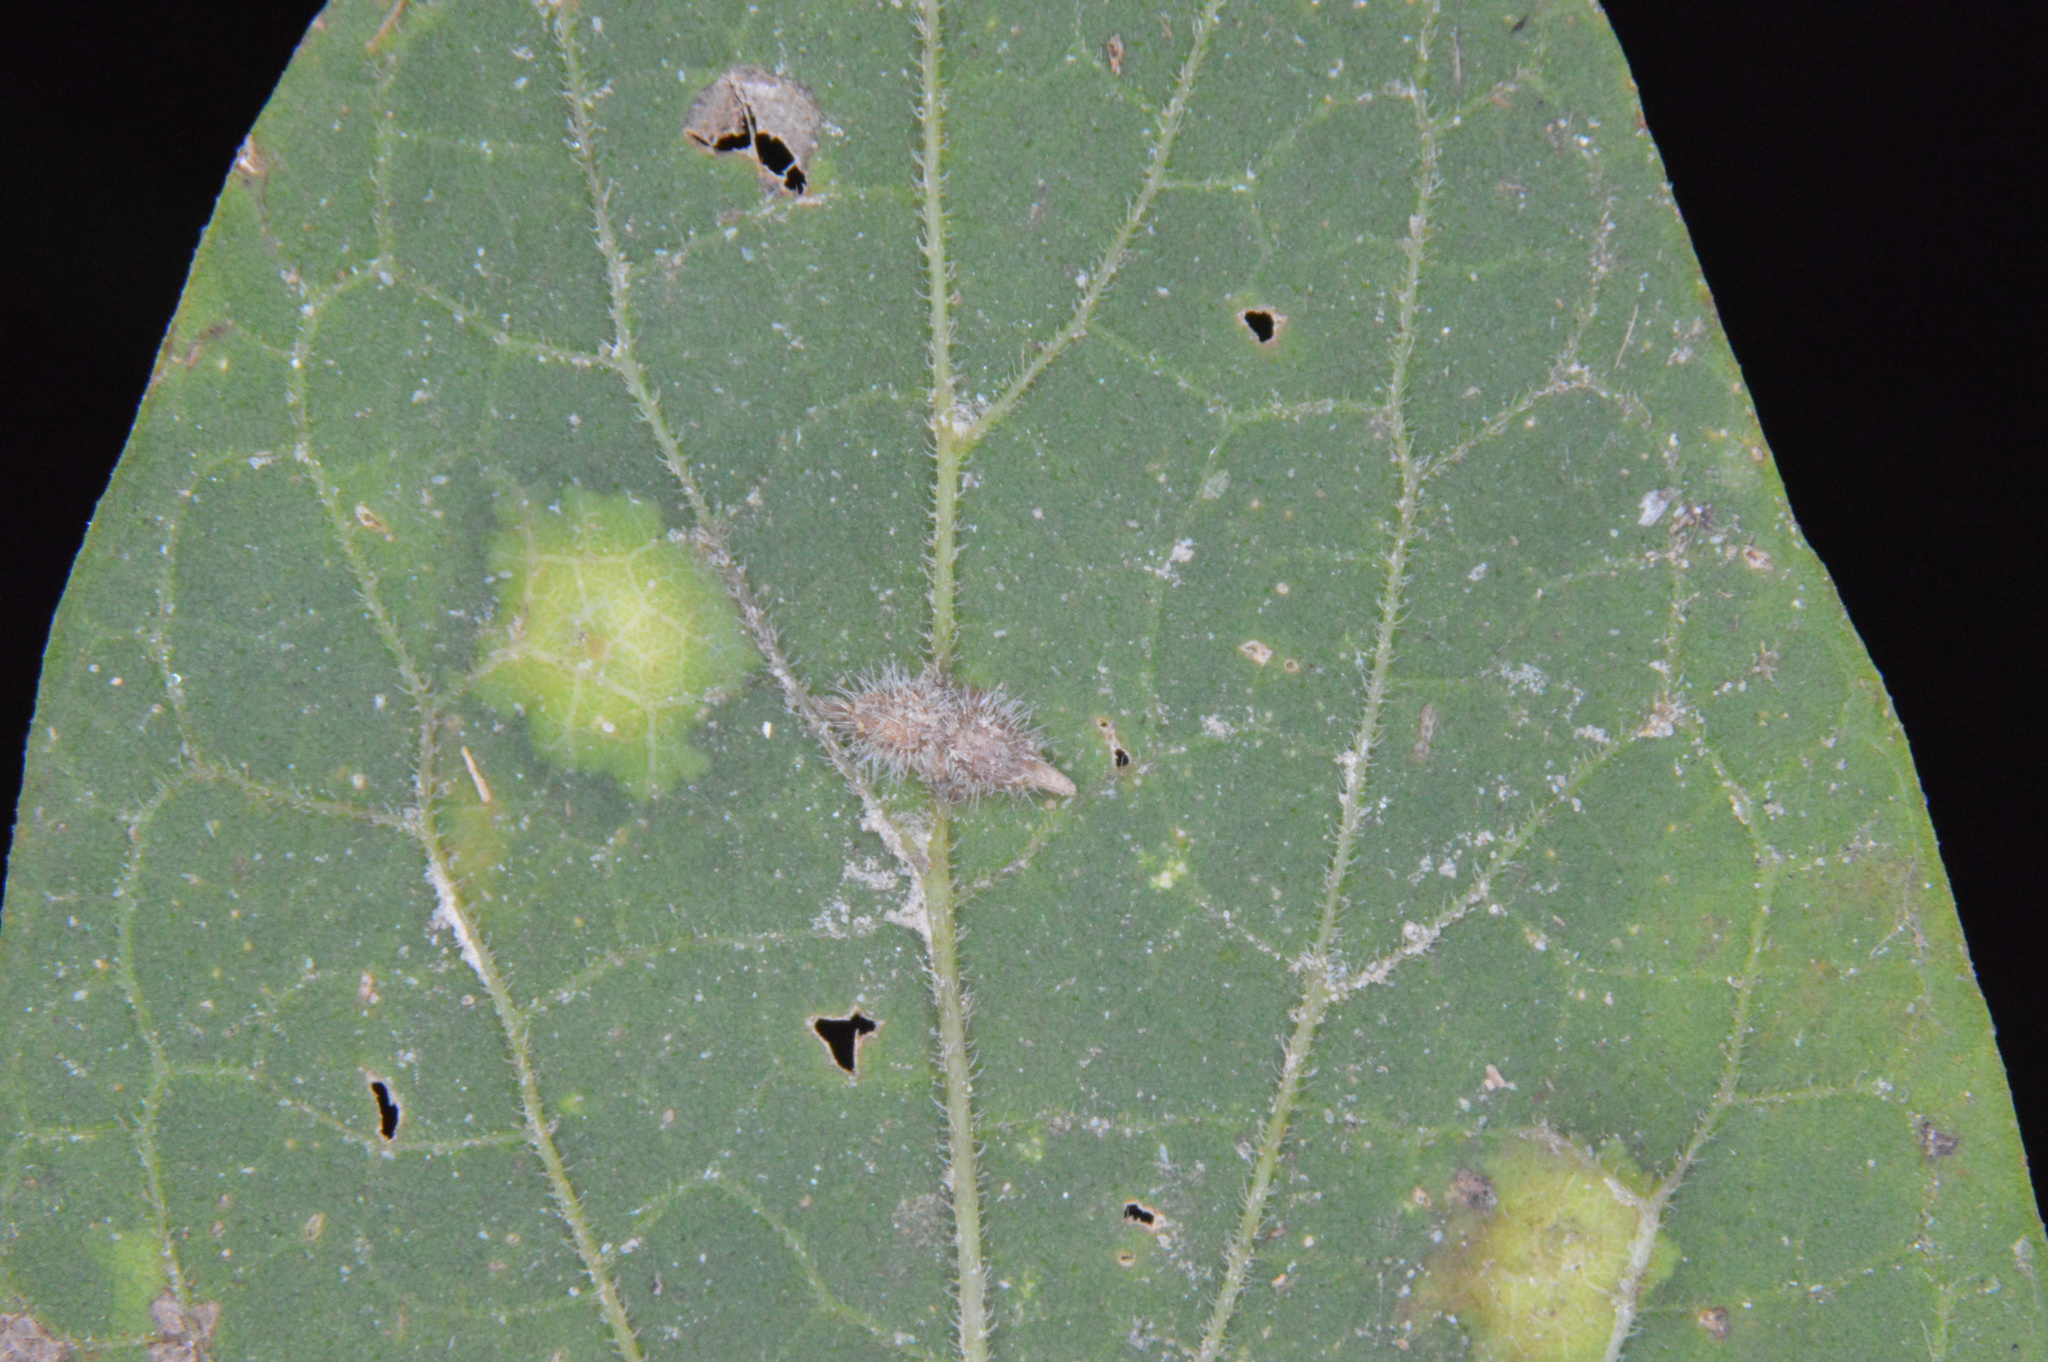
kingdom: Animalia
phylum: Arthropoda
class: Insecta
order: Diptera
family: Cecidomyiidae
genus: Celticecis
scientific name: Celticecis supina
